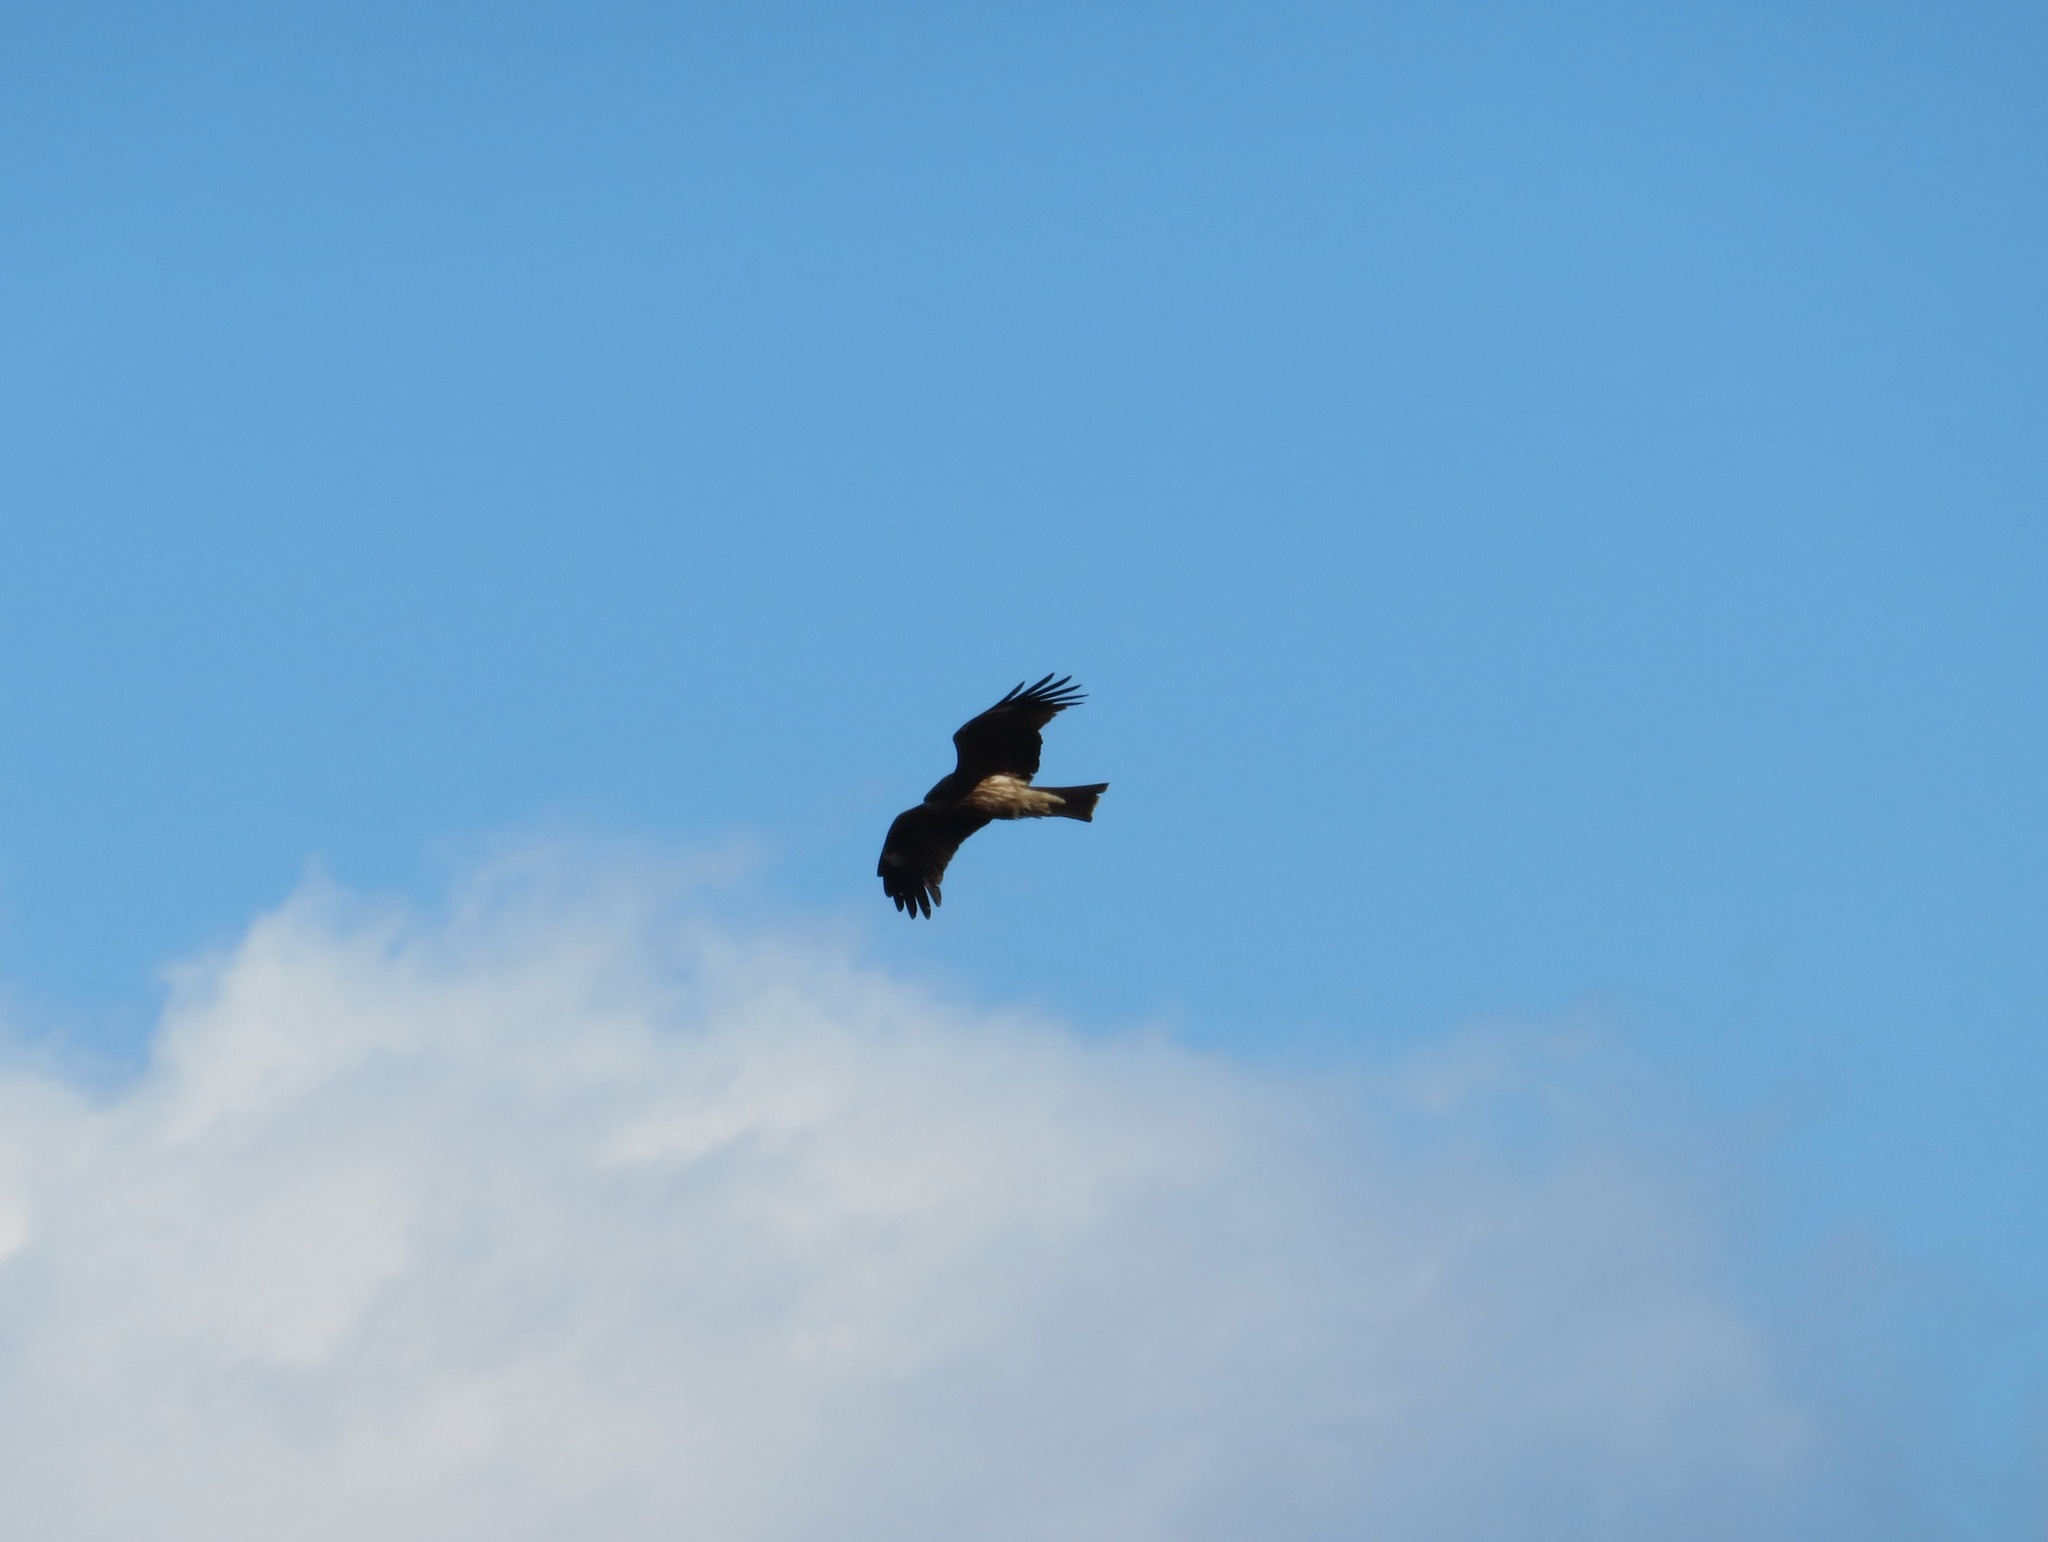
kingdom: Animalia
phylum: Chordata
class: Aves
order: Accipitriformes
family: Accipitridae
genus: Milvus
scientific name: Milvus migrans
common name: Black kite
